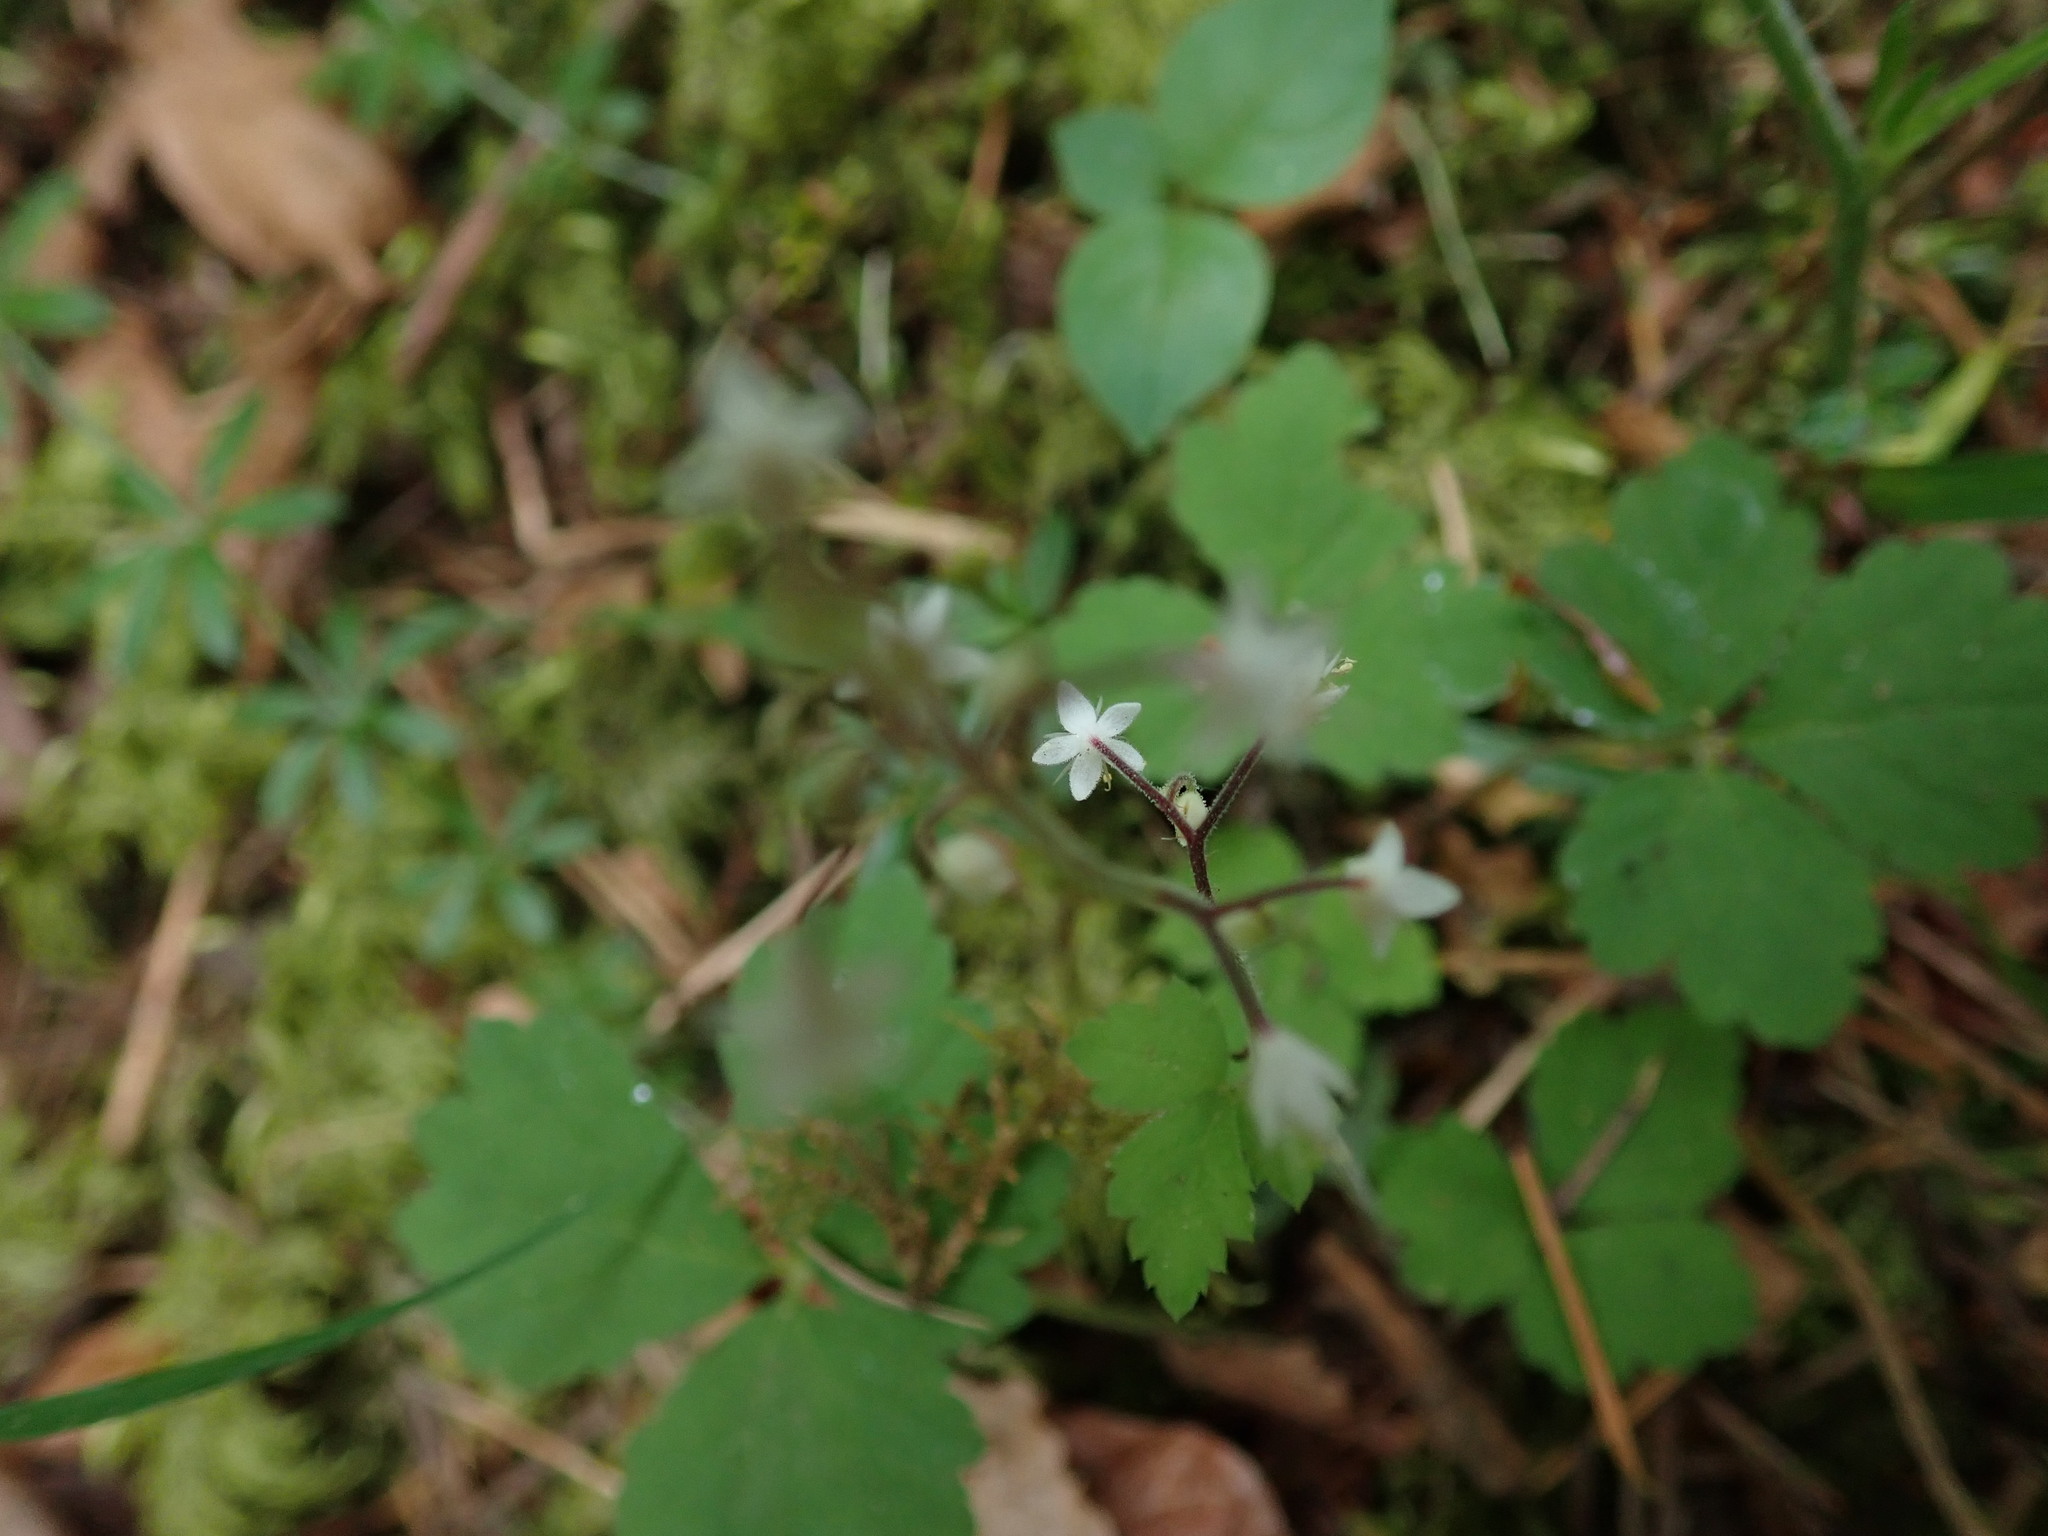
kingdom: Plantae
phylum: Tracheophyta
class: Magnoliopsida
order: Saxifragales
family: Saxifragaceae
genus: Tiarella
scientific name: Tiarella trifoliata
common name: Sugar-scoop
